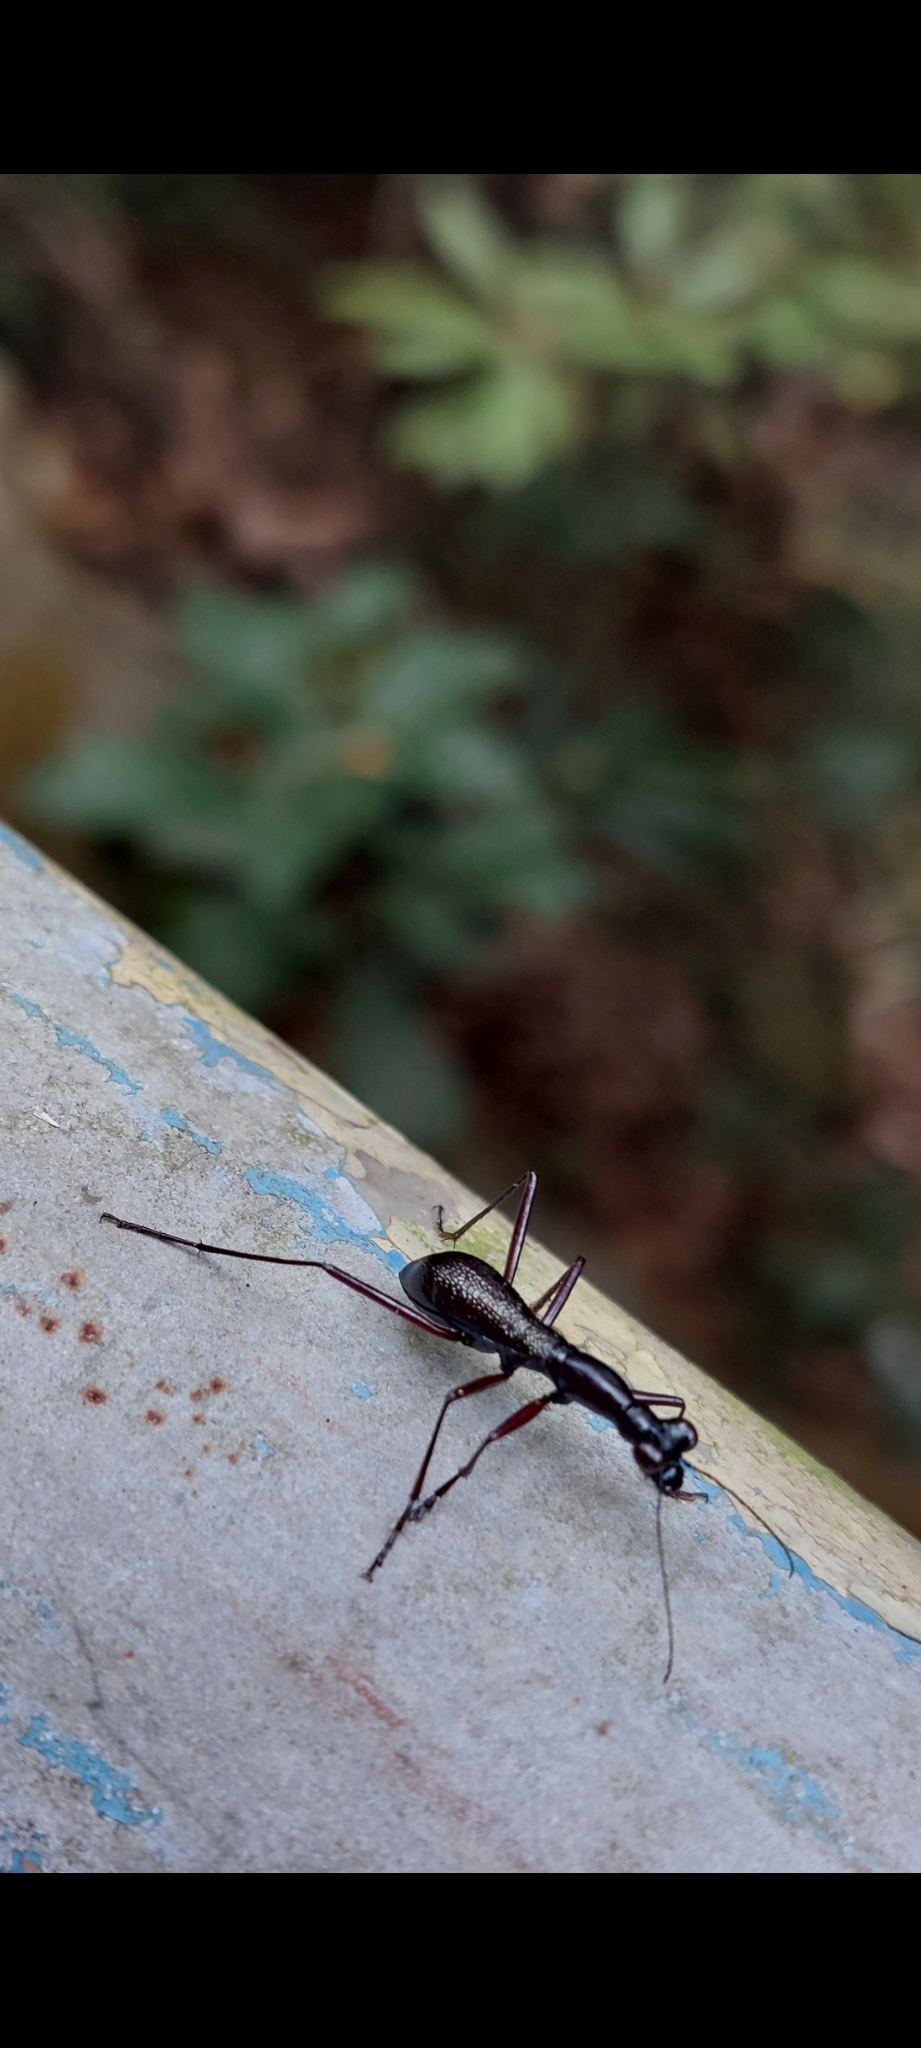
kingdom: Animalia
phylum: Arthropoda
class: Insecta
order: Coleoptera
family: Carabidae
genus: Tricondyla
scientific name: Tricondyla pulchripes
